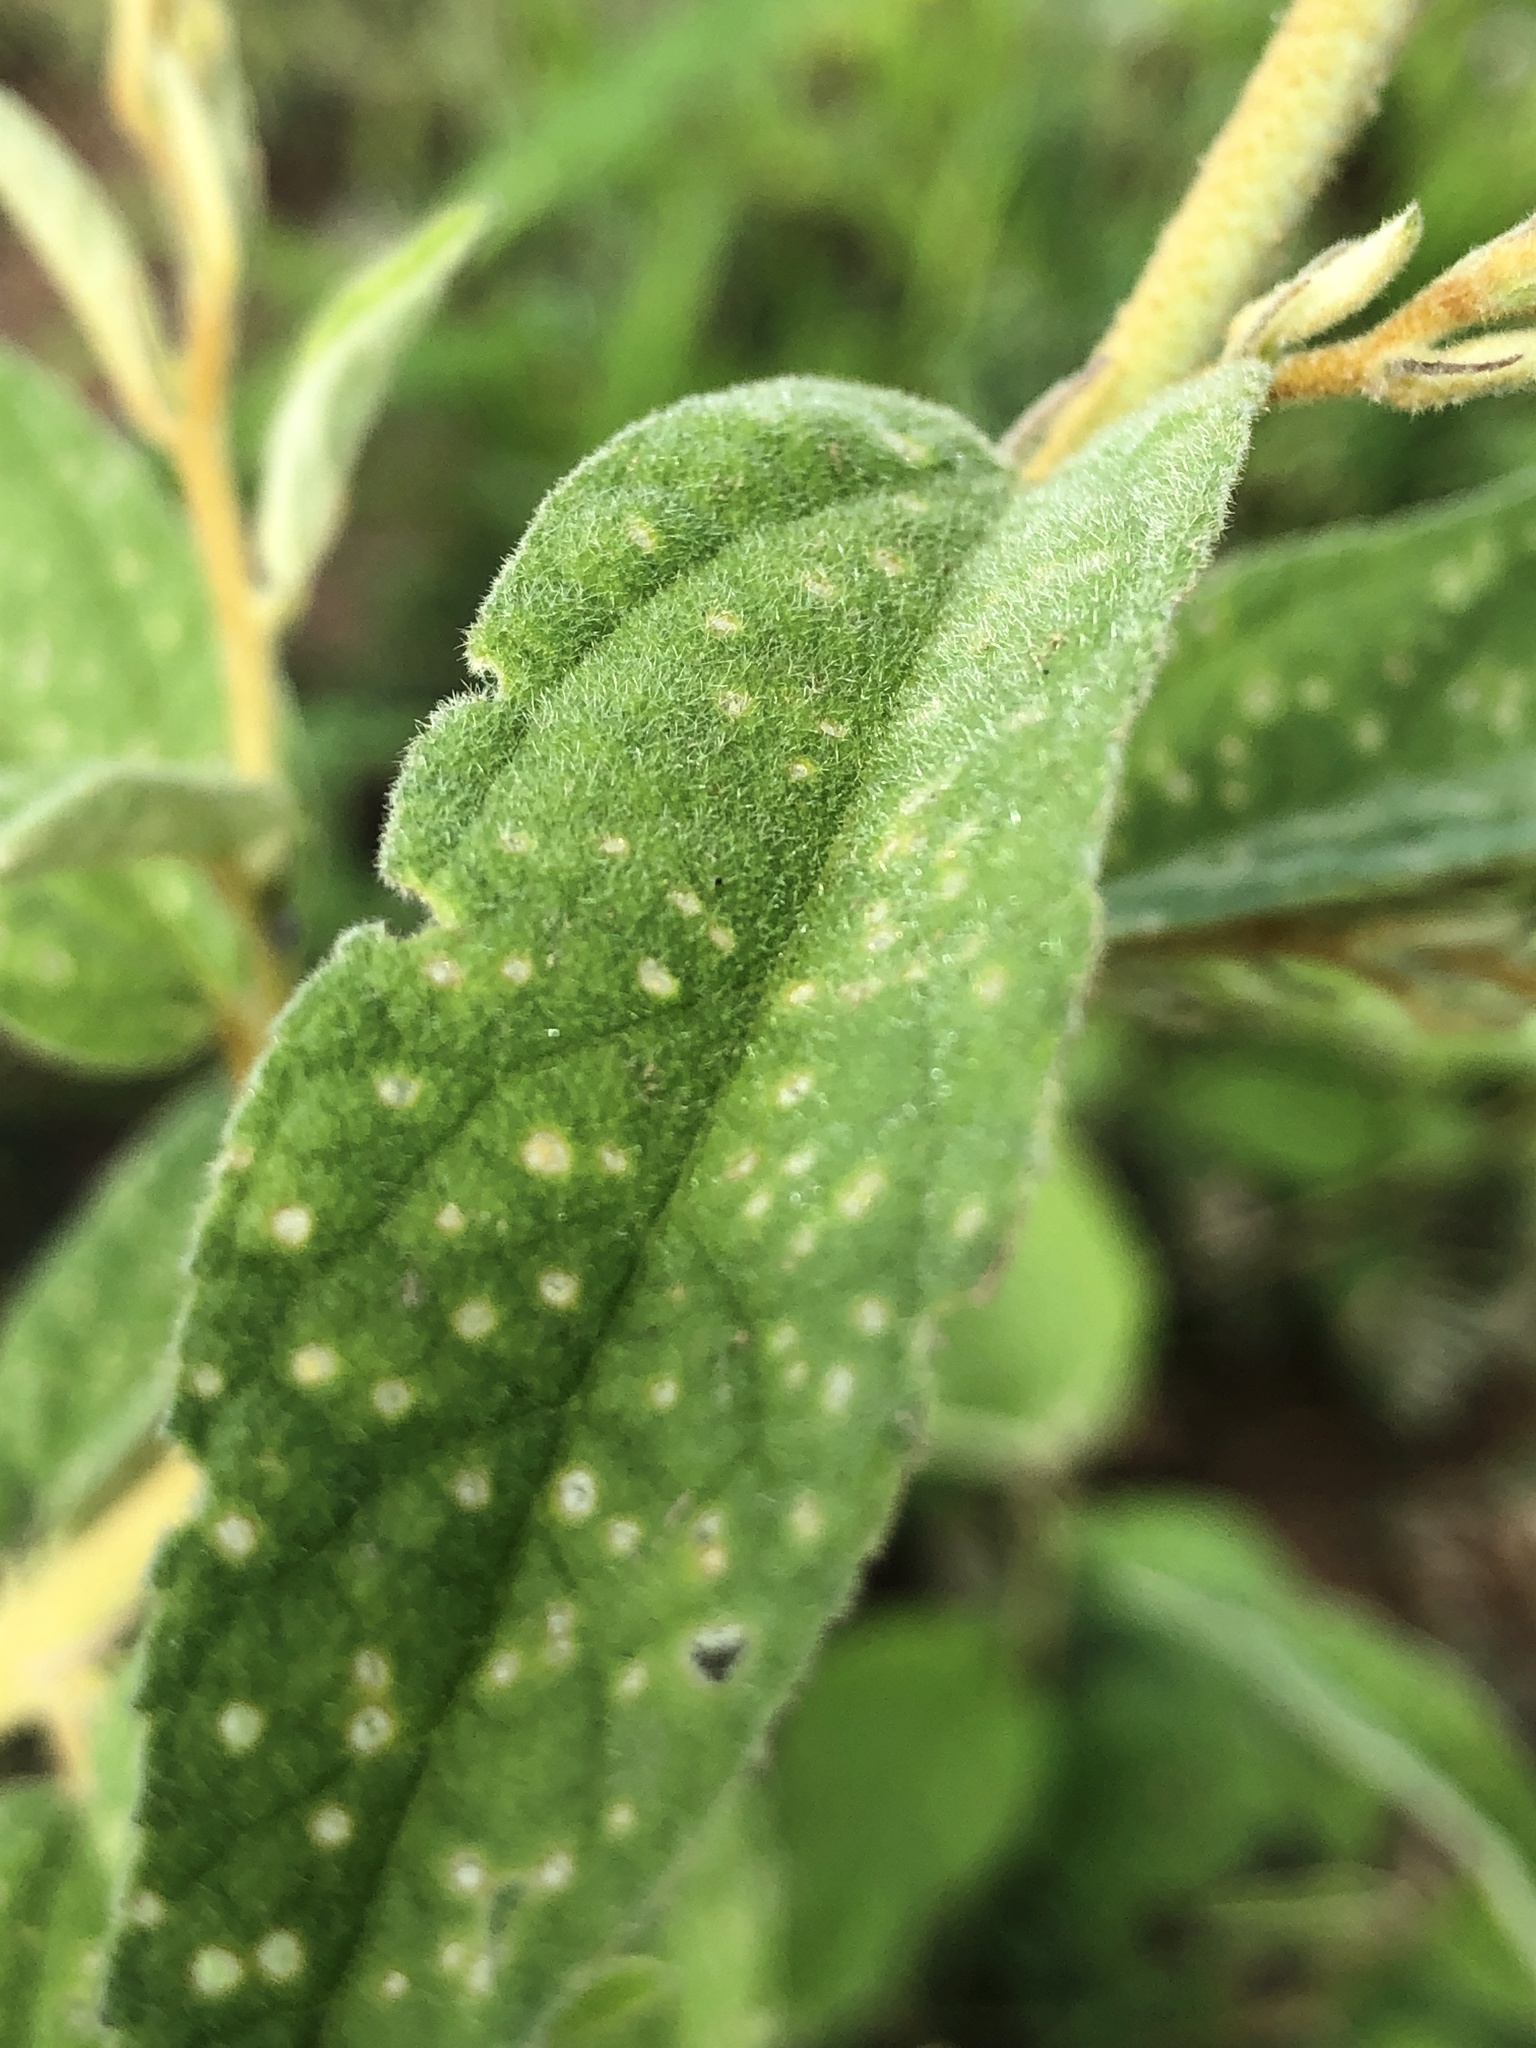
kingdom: Plantae
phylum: Tracheophyta
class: Magnoliopsida
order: Malvales
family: Malvaceae
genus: Sida
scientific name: Sida hackettiana
